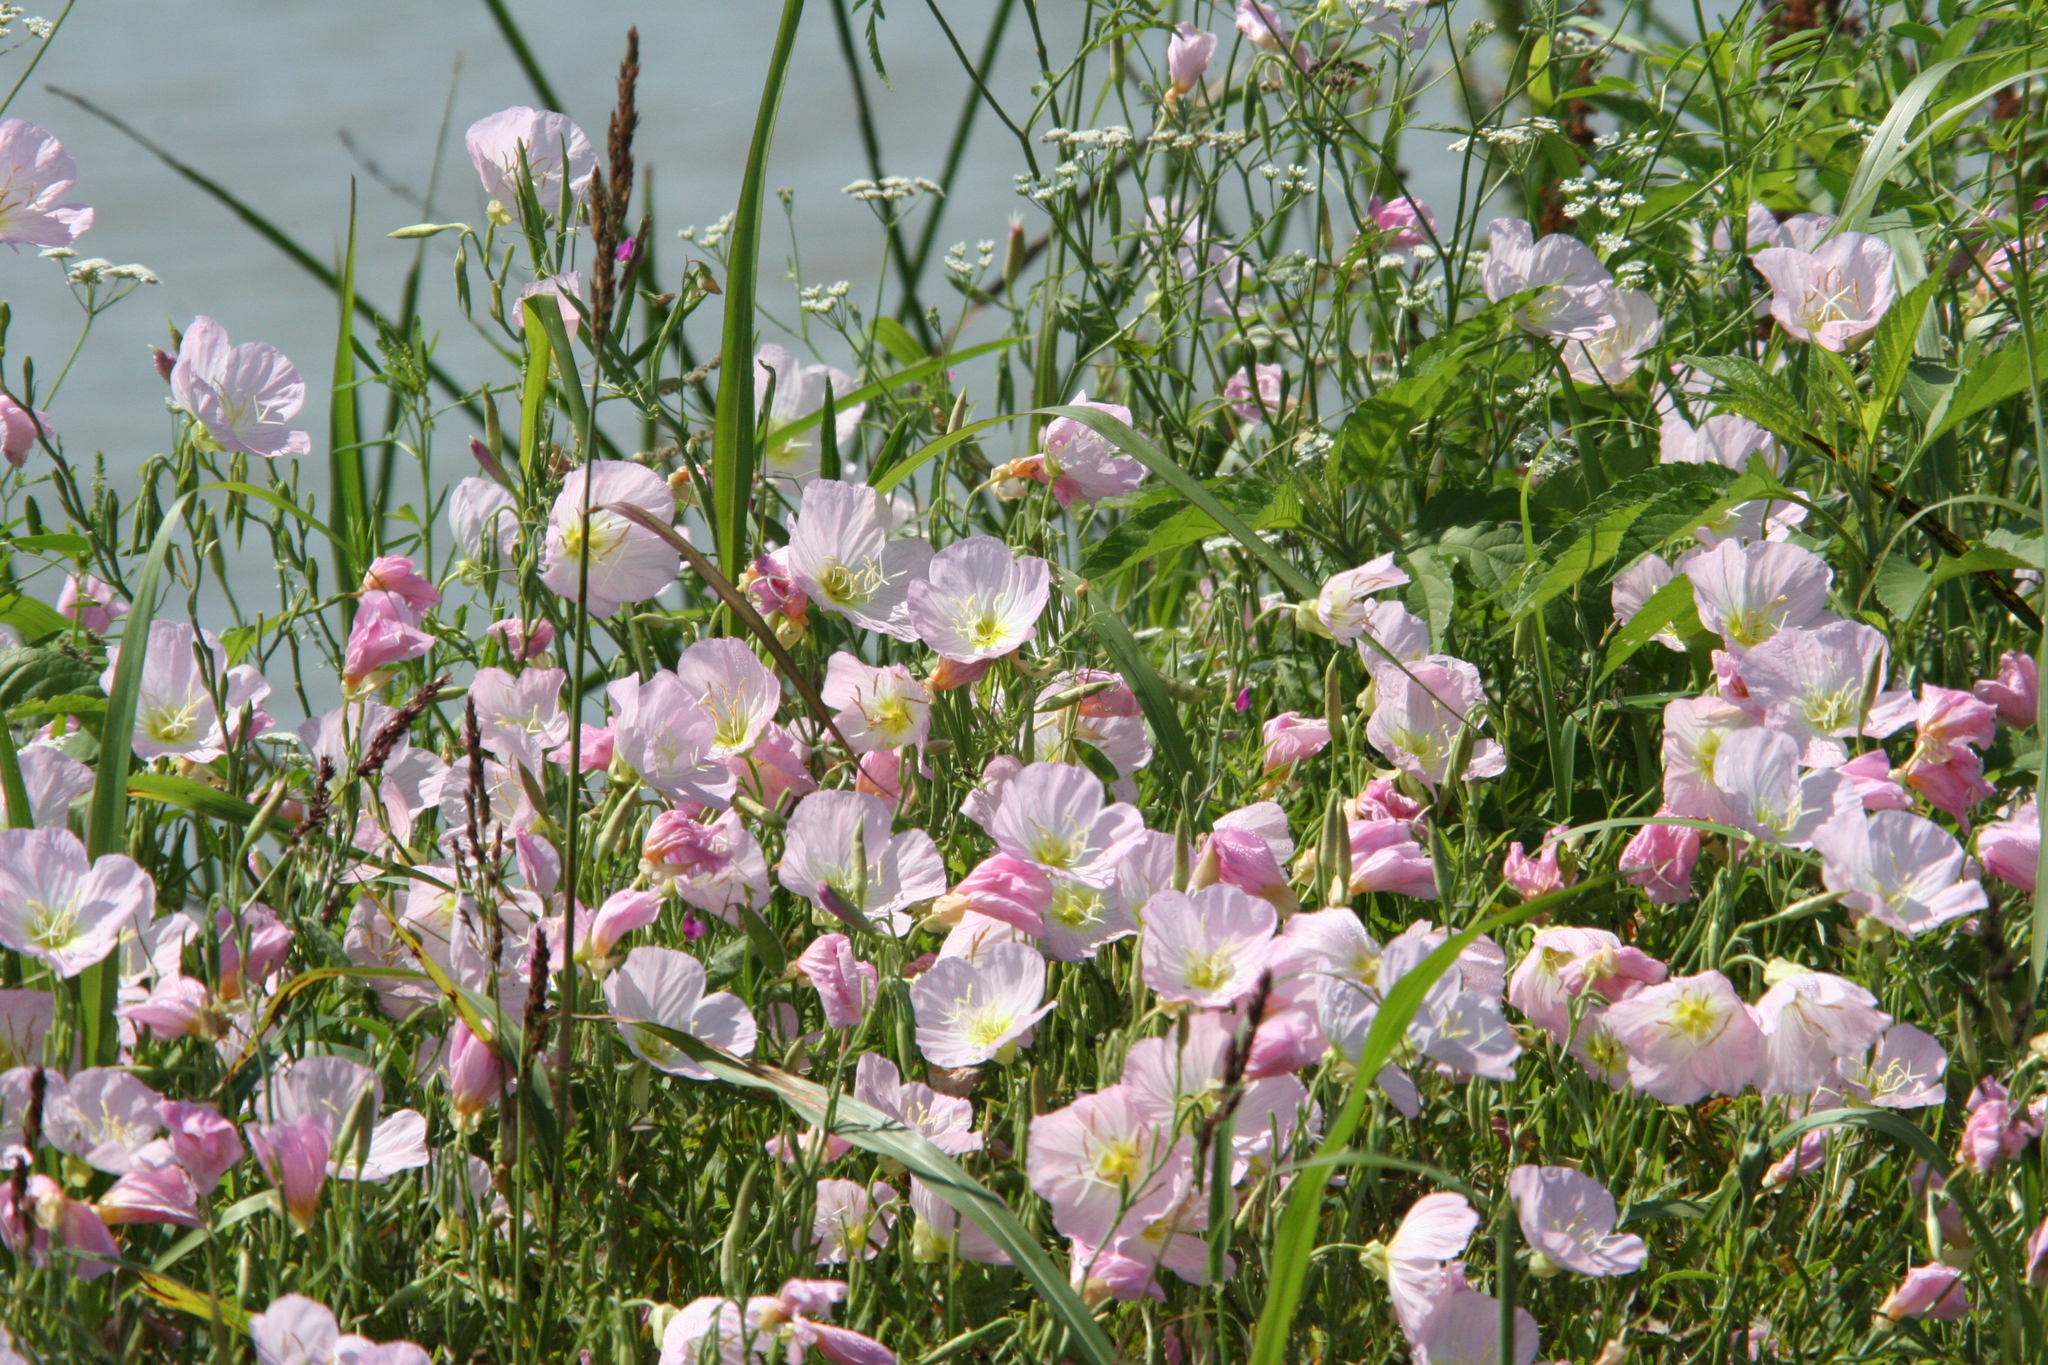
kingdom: Plantae
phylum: Tracheophyta
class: Magnoliopsida
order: Myrtales
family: Onagraceae
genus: Oenothera
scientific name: Oenothera speciosa
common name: White evening-primrose
